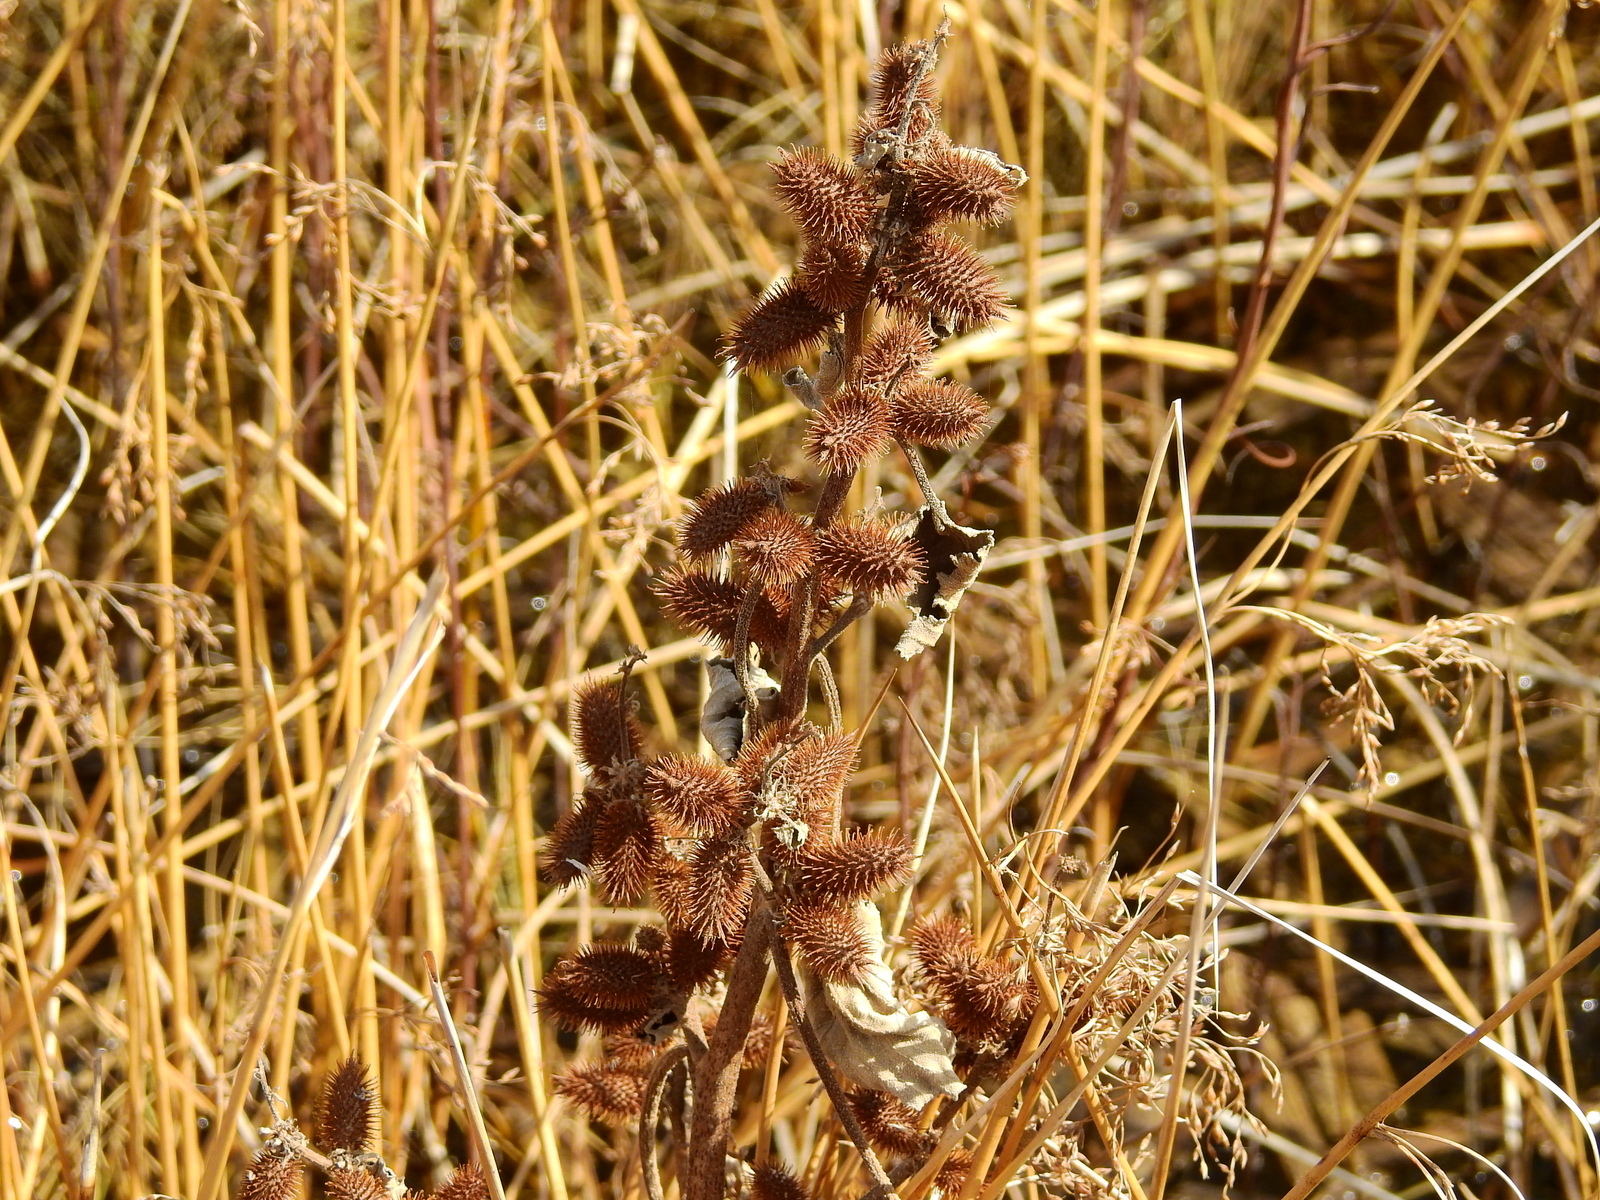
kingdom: Plantae
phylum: Tracheophyta
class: Magnoliopsida
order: Asterales
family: Asteraceae
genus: Xanthium
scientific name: Xanthium orientale
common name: Californian burr
